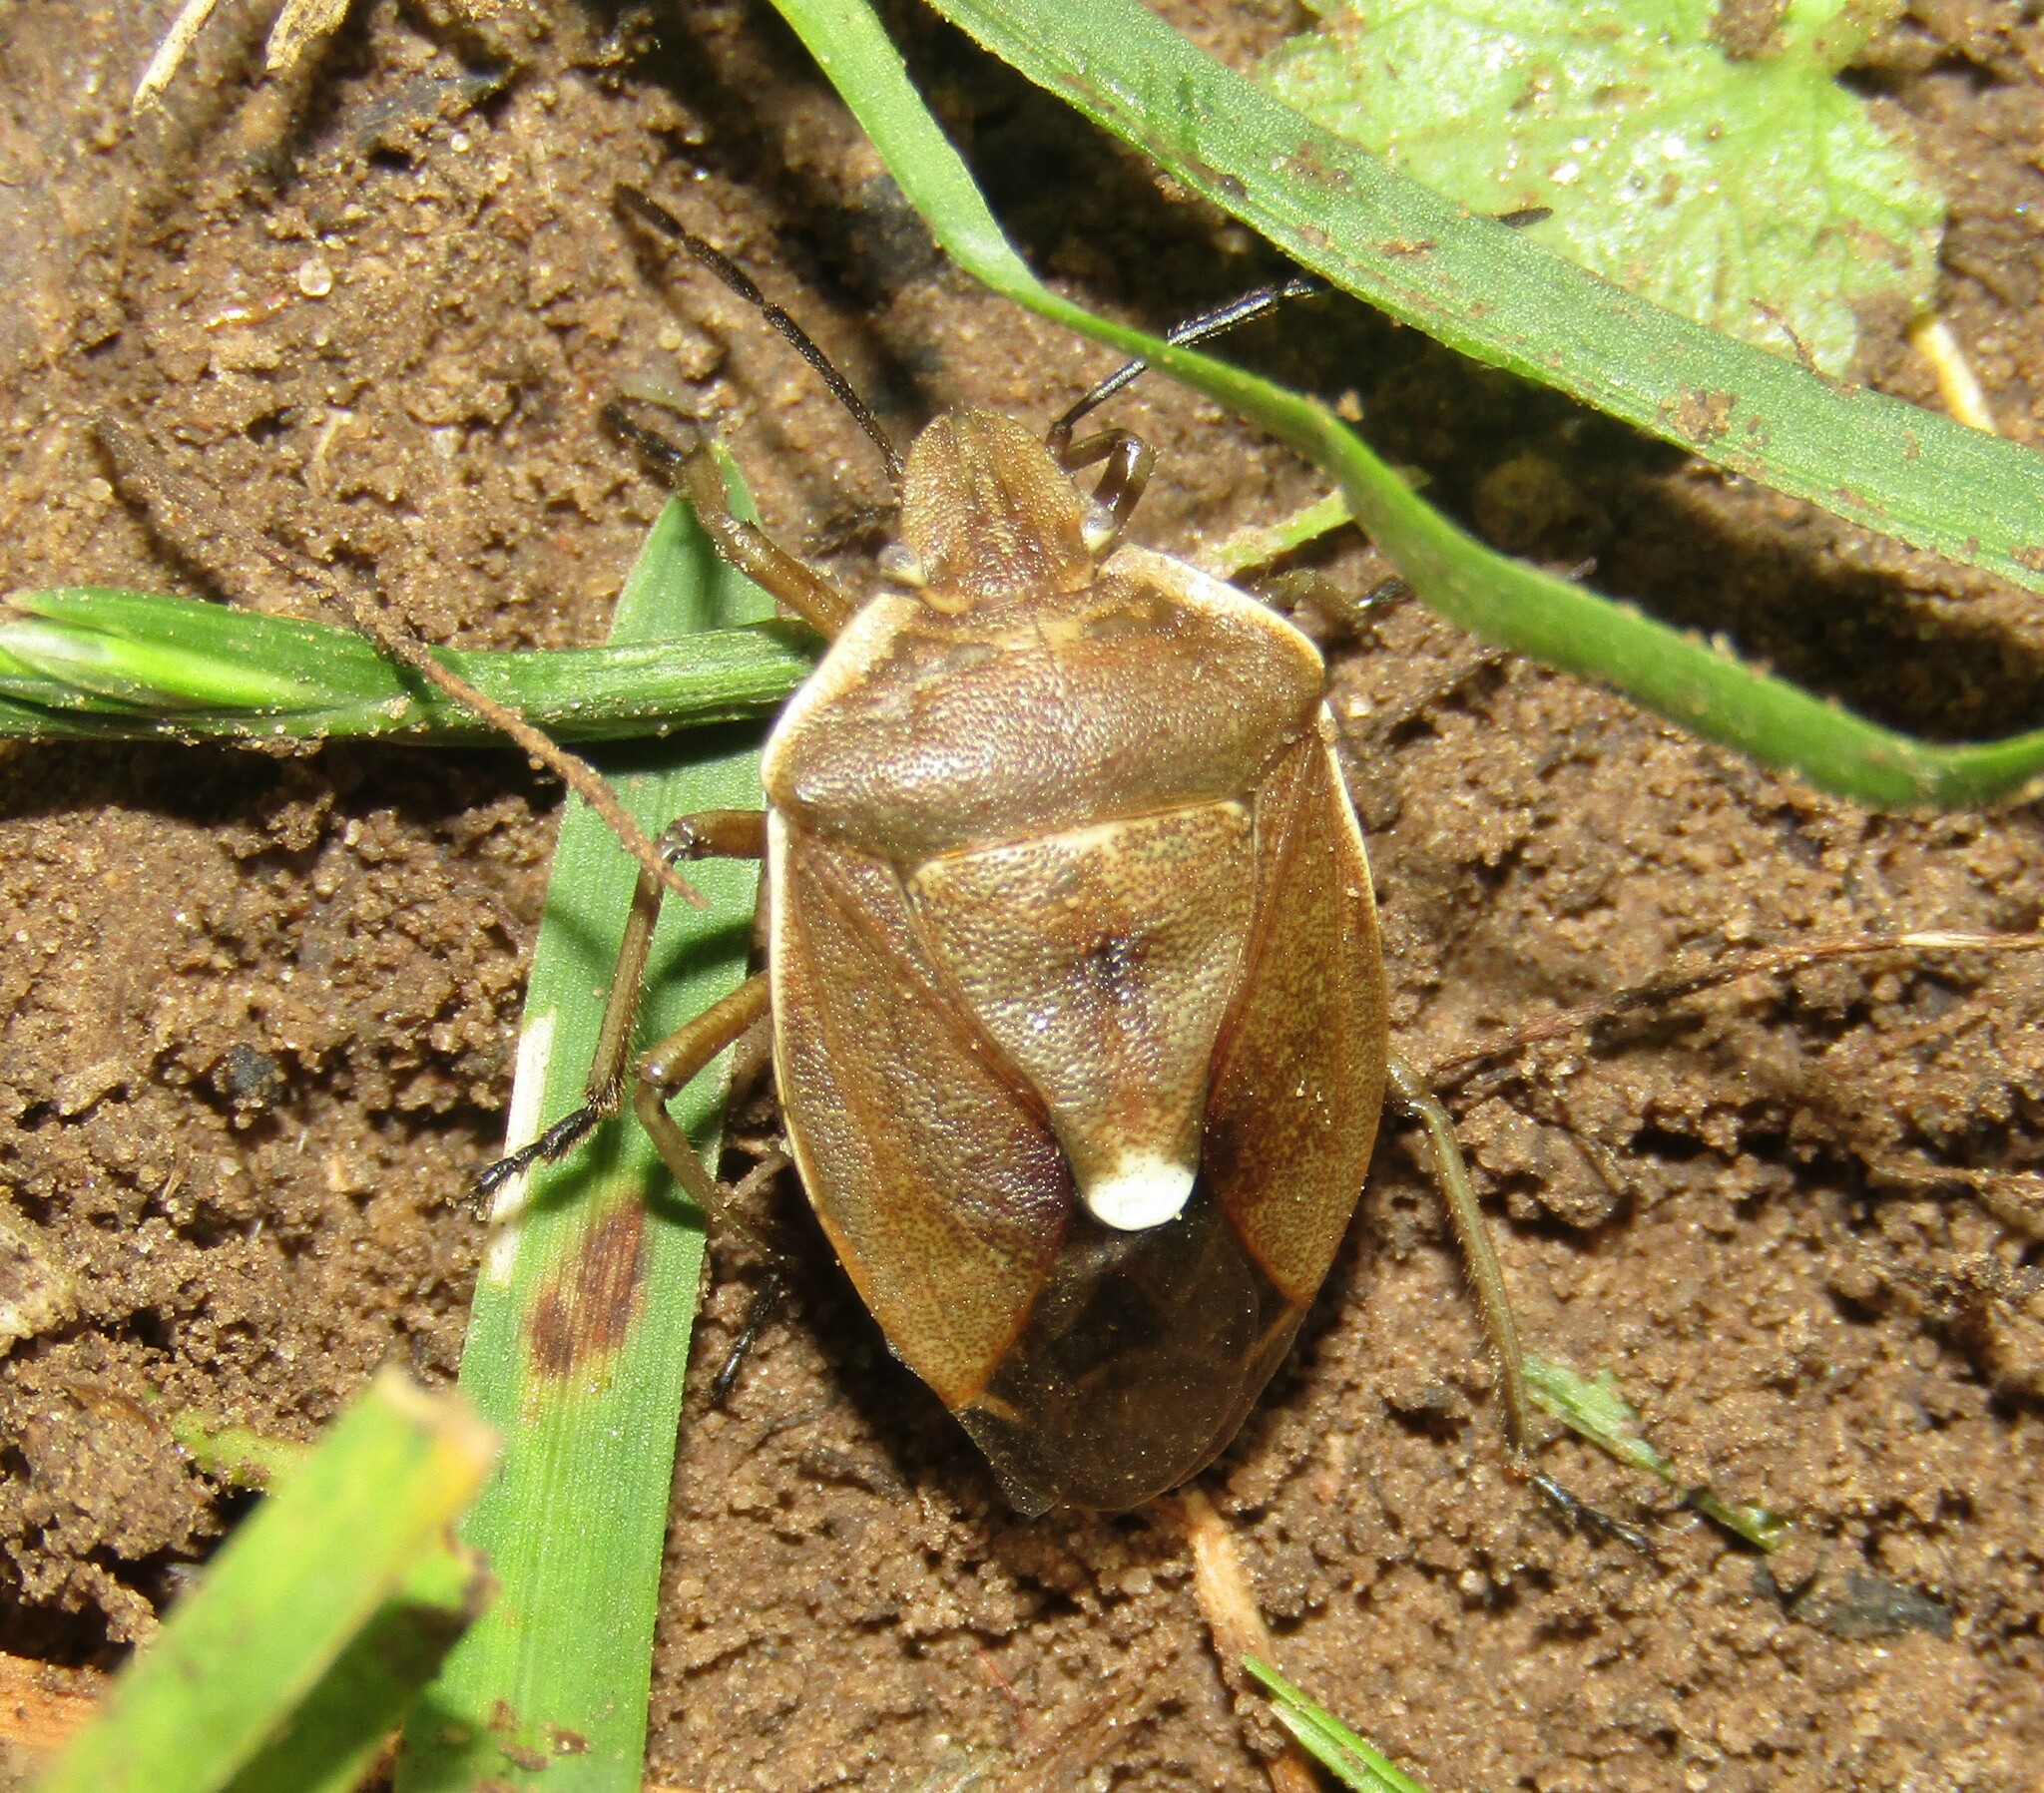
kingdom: Animalia
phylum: Arthropoda
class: Insecta
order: Hemiptera
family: Pentatomidae
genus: Chlorochroa
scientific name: Chlorochroa pinicola
